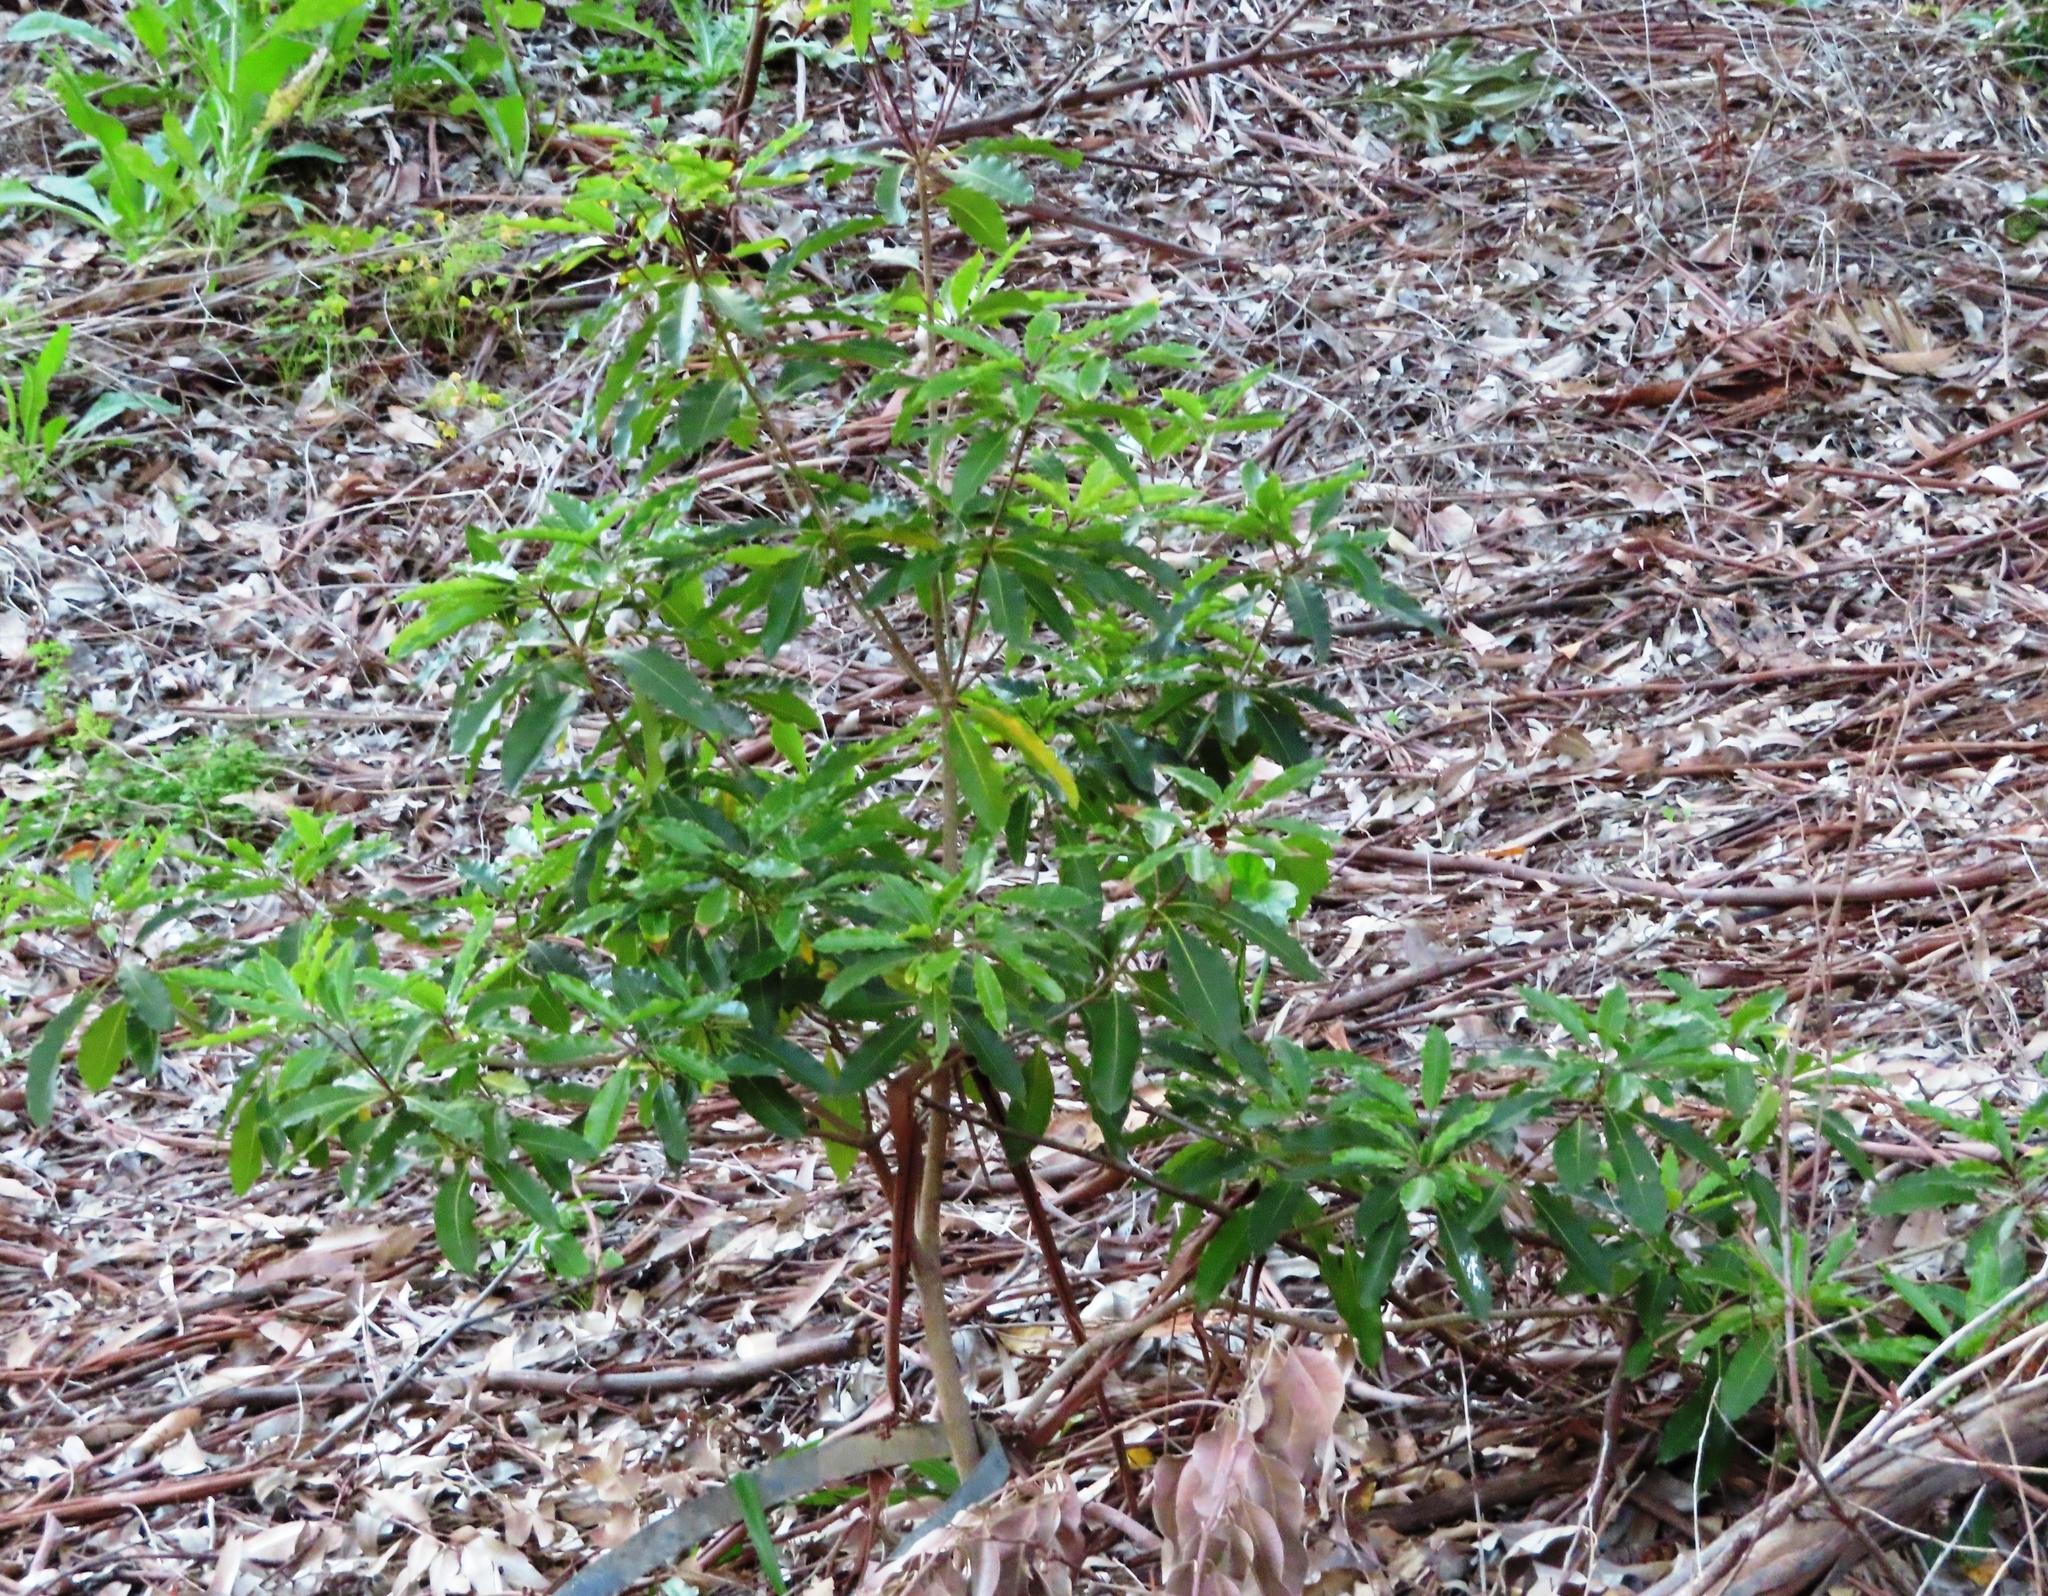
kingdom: Plantae
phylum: Tracheophyta
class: Magnoliopsida
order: Apiales
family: Pittosporaceae
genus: Pittosporum
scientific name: Pittosporum undulatum
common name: Australian cheesewood
